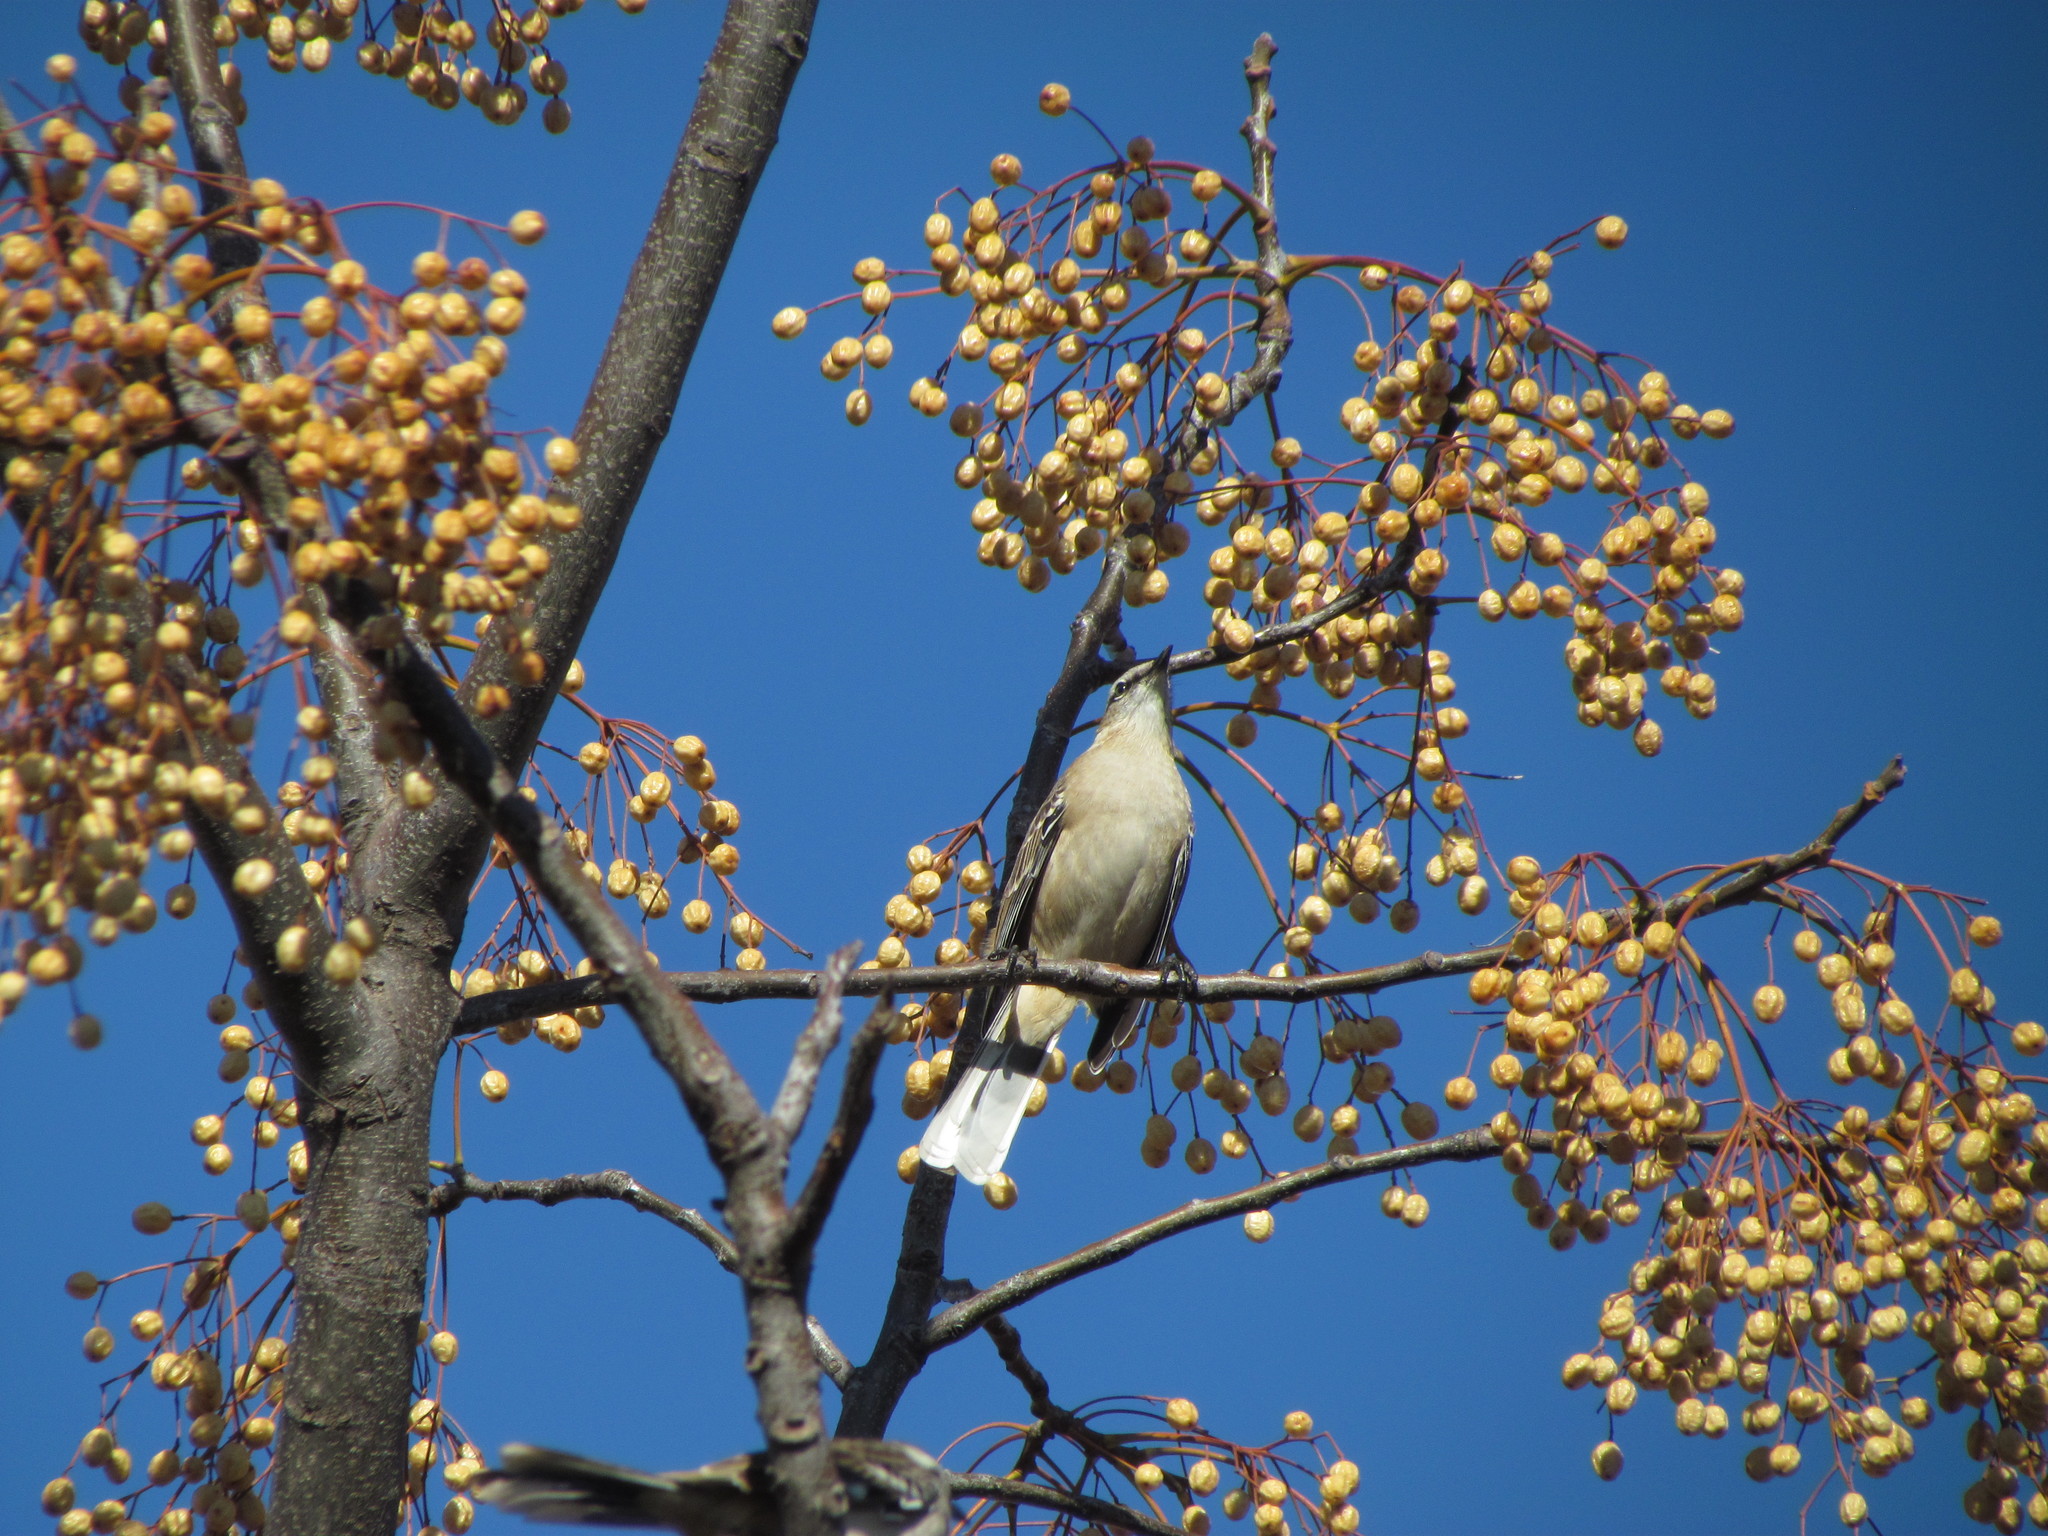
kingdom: Animalia
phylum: Chordata
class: Aves
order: Passeriformes
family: Mimidae
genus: Mimus
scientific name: Mimus saturninus
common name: Chalk-browed mockingbird
